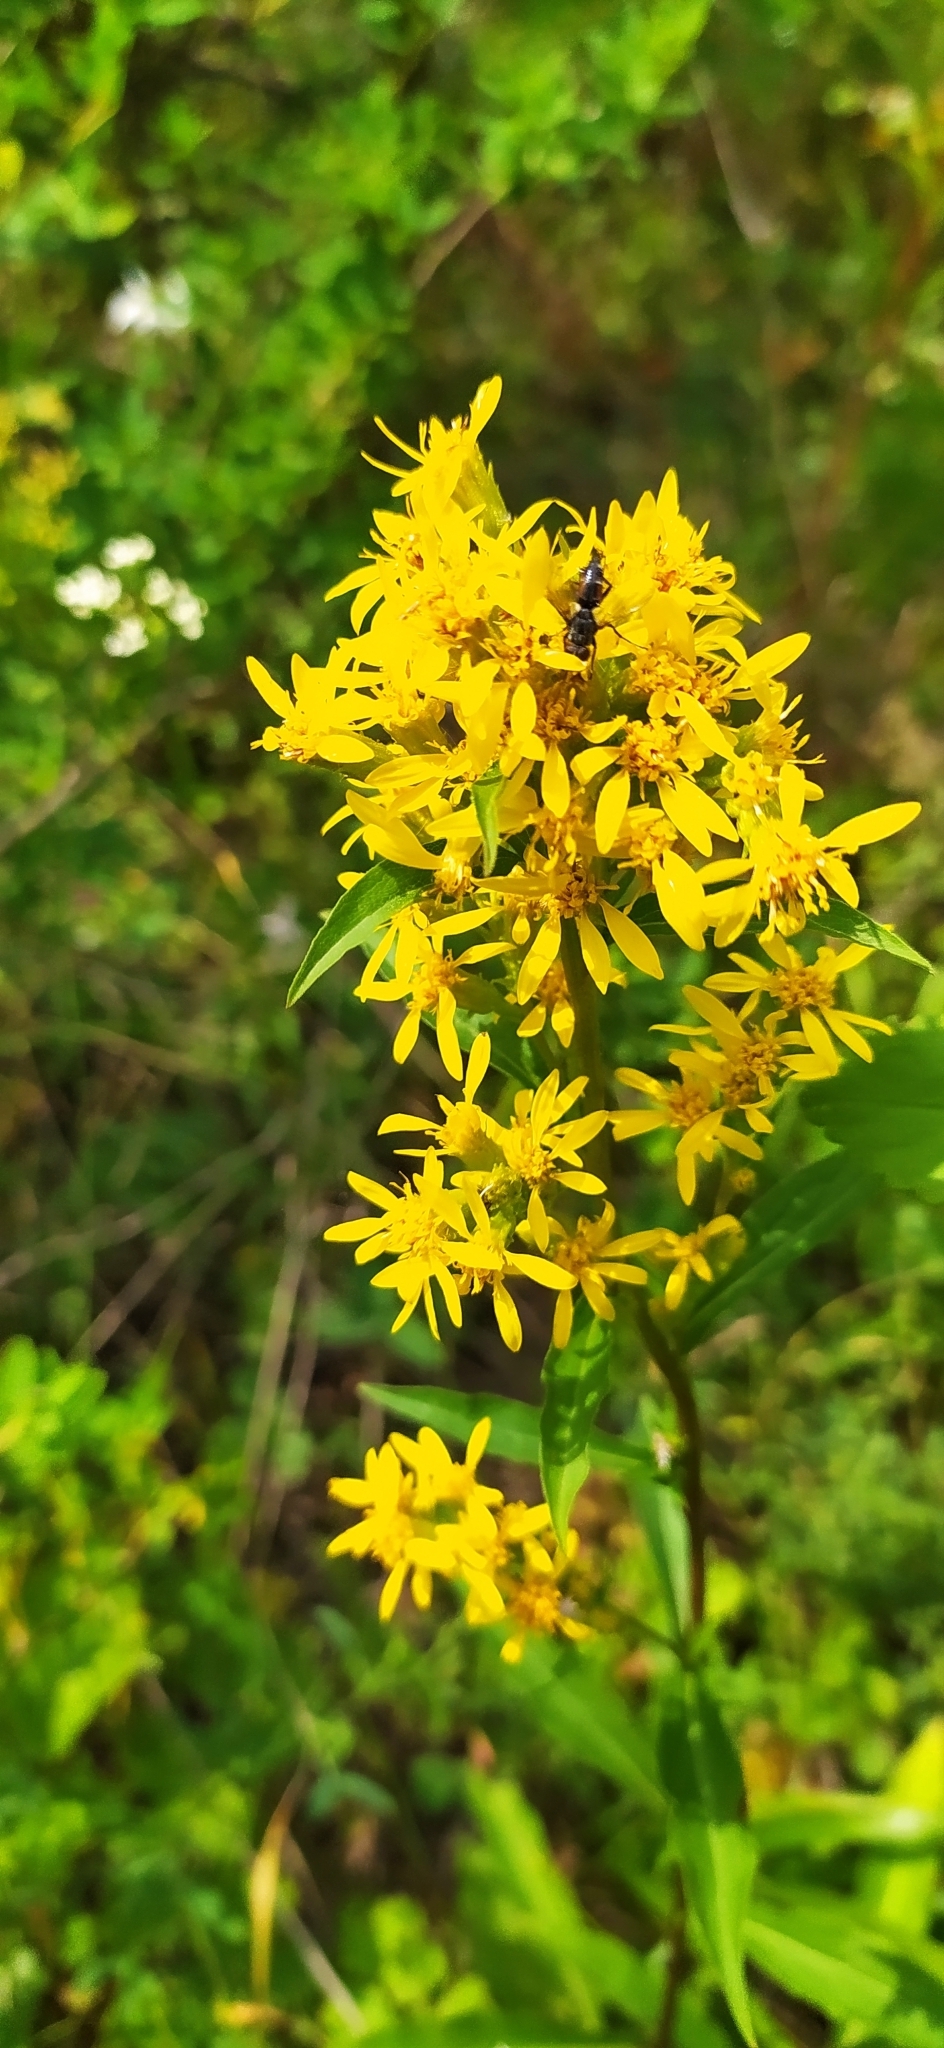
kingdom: Plantae
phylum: Tracheophyta
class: Magnoliopsida
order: Asterales
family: Asteraceae
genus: Solidago
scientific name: Solidago virgaurea
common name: Goldenrod
